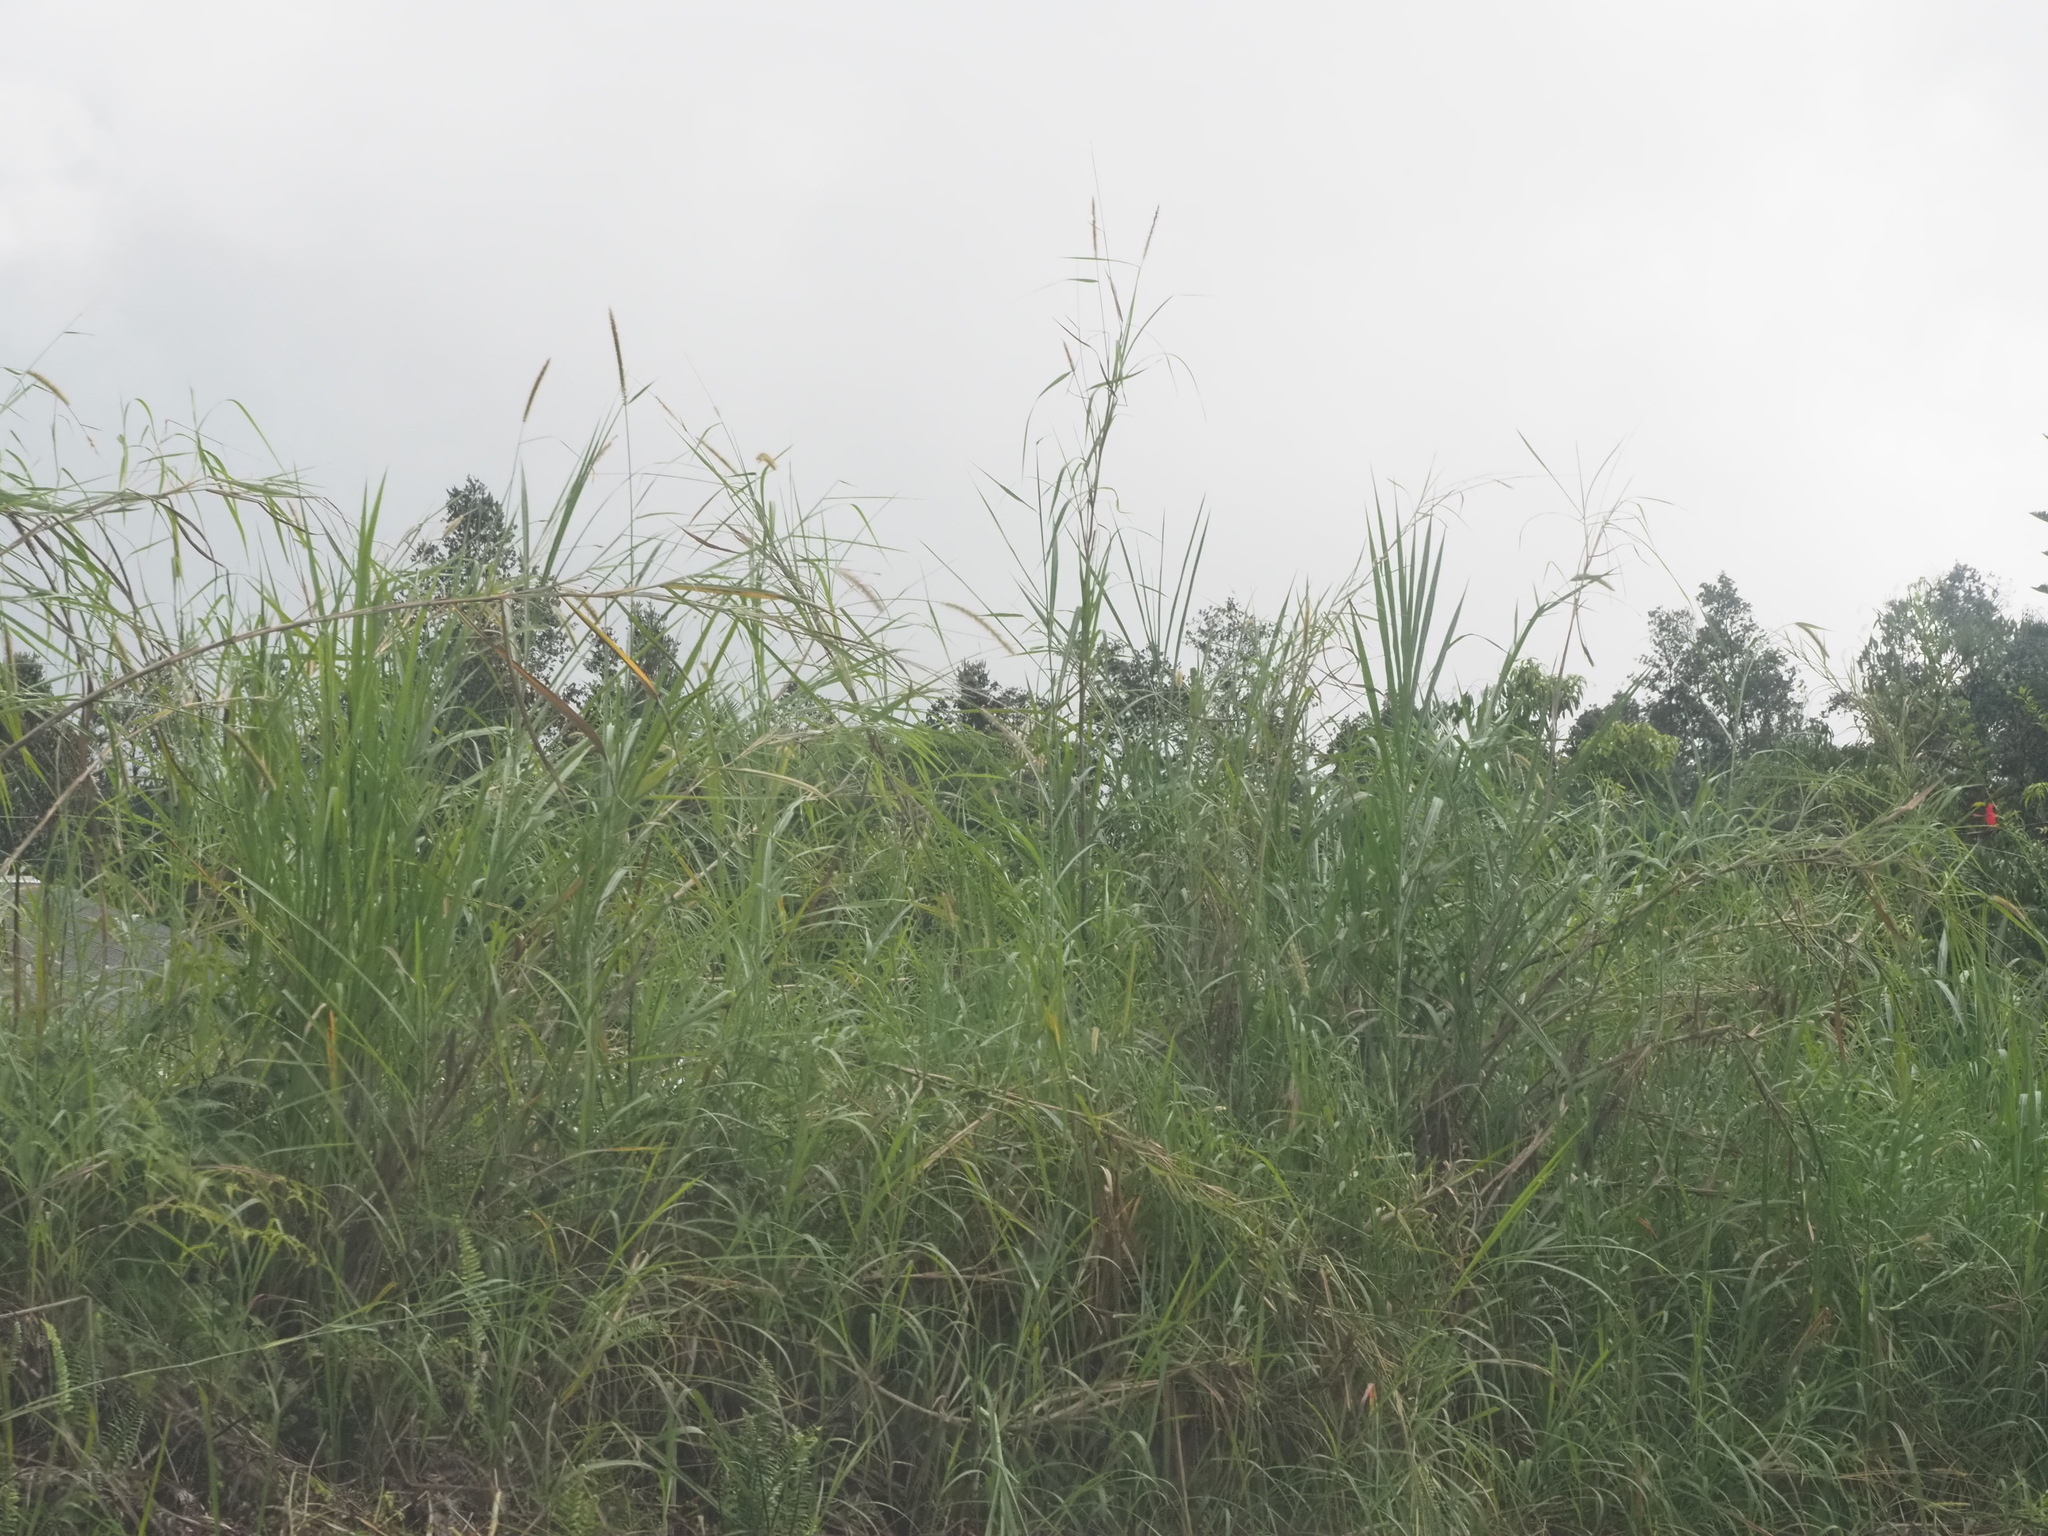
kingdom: Plantae
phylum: Tracheophyta
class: Liliopsida
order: Poales
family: Poaceae
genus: Cenchrus
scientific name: Cenchrus purpureus
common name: Elephant grass
